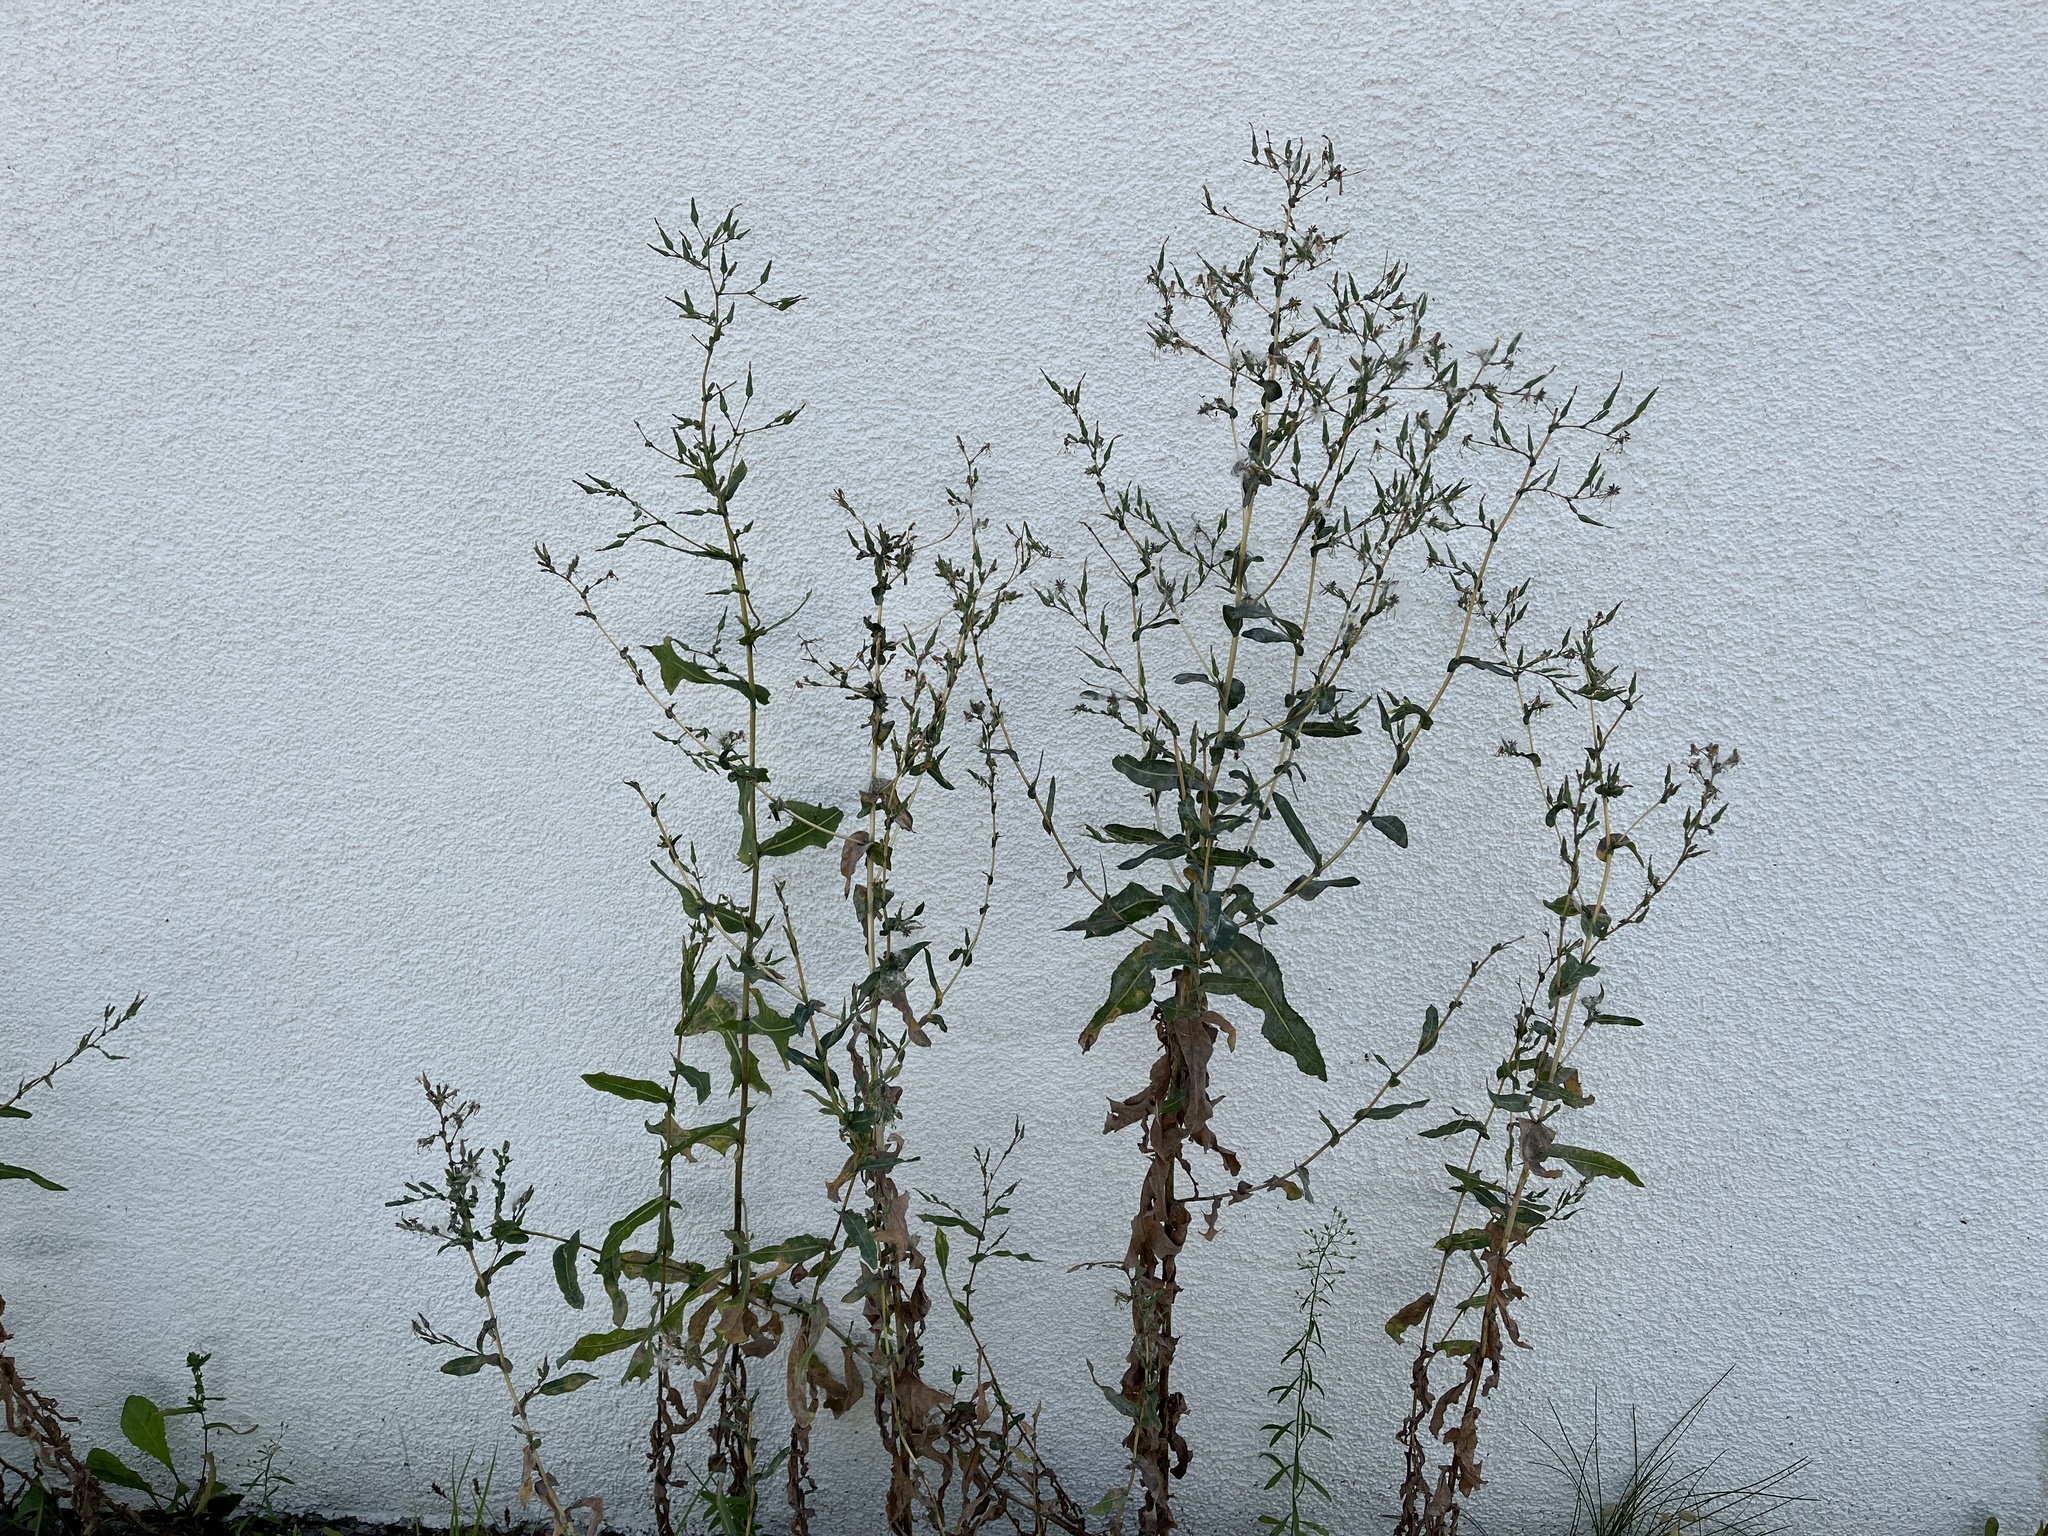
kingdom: Plantae
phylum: Tracheophyta
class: Magnoliopsida
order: Asterales
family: Asteraceae
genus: Lactuca
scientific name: Lactuca serriola
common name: Prickly lettuce
